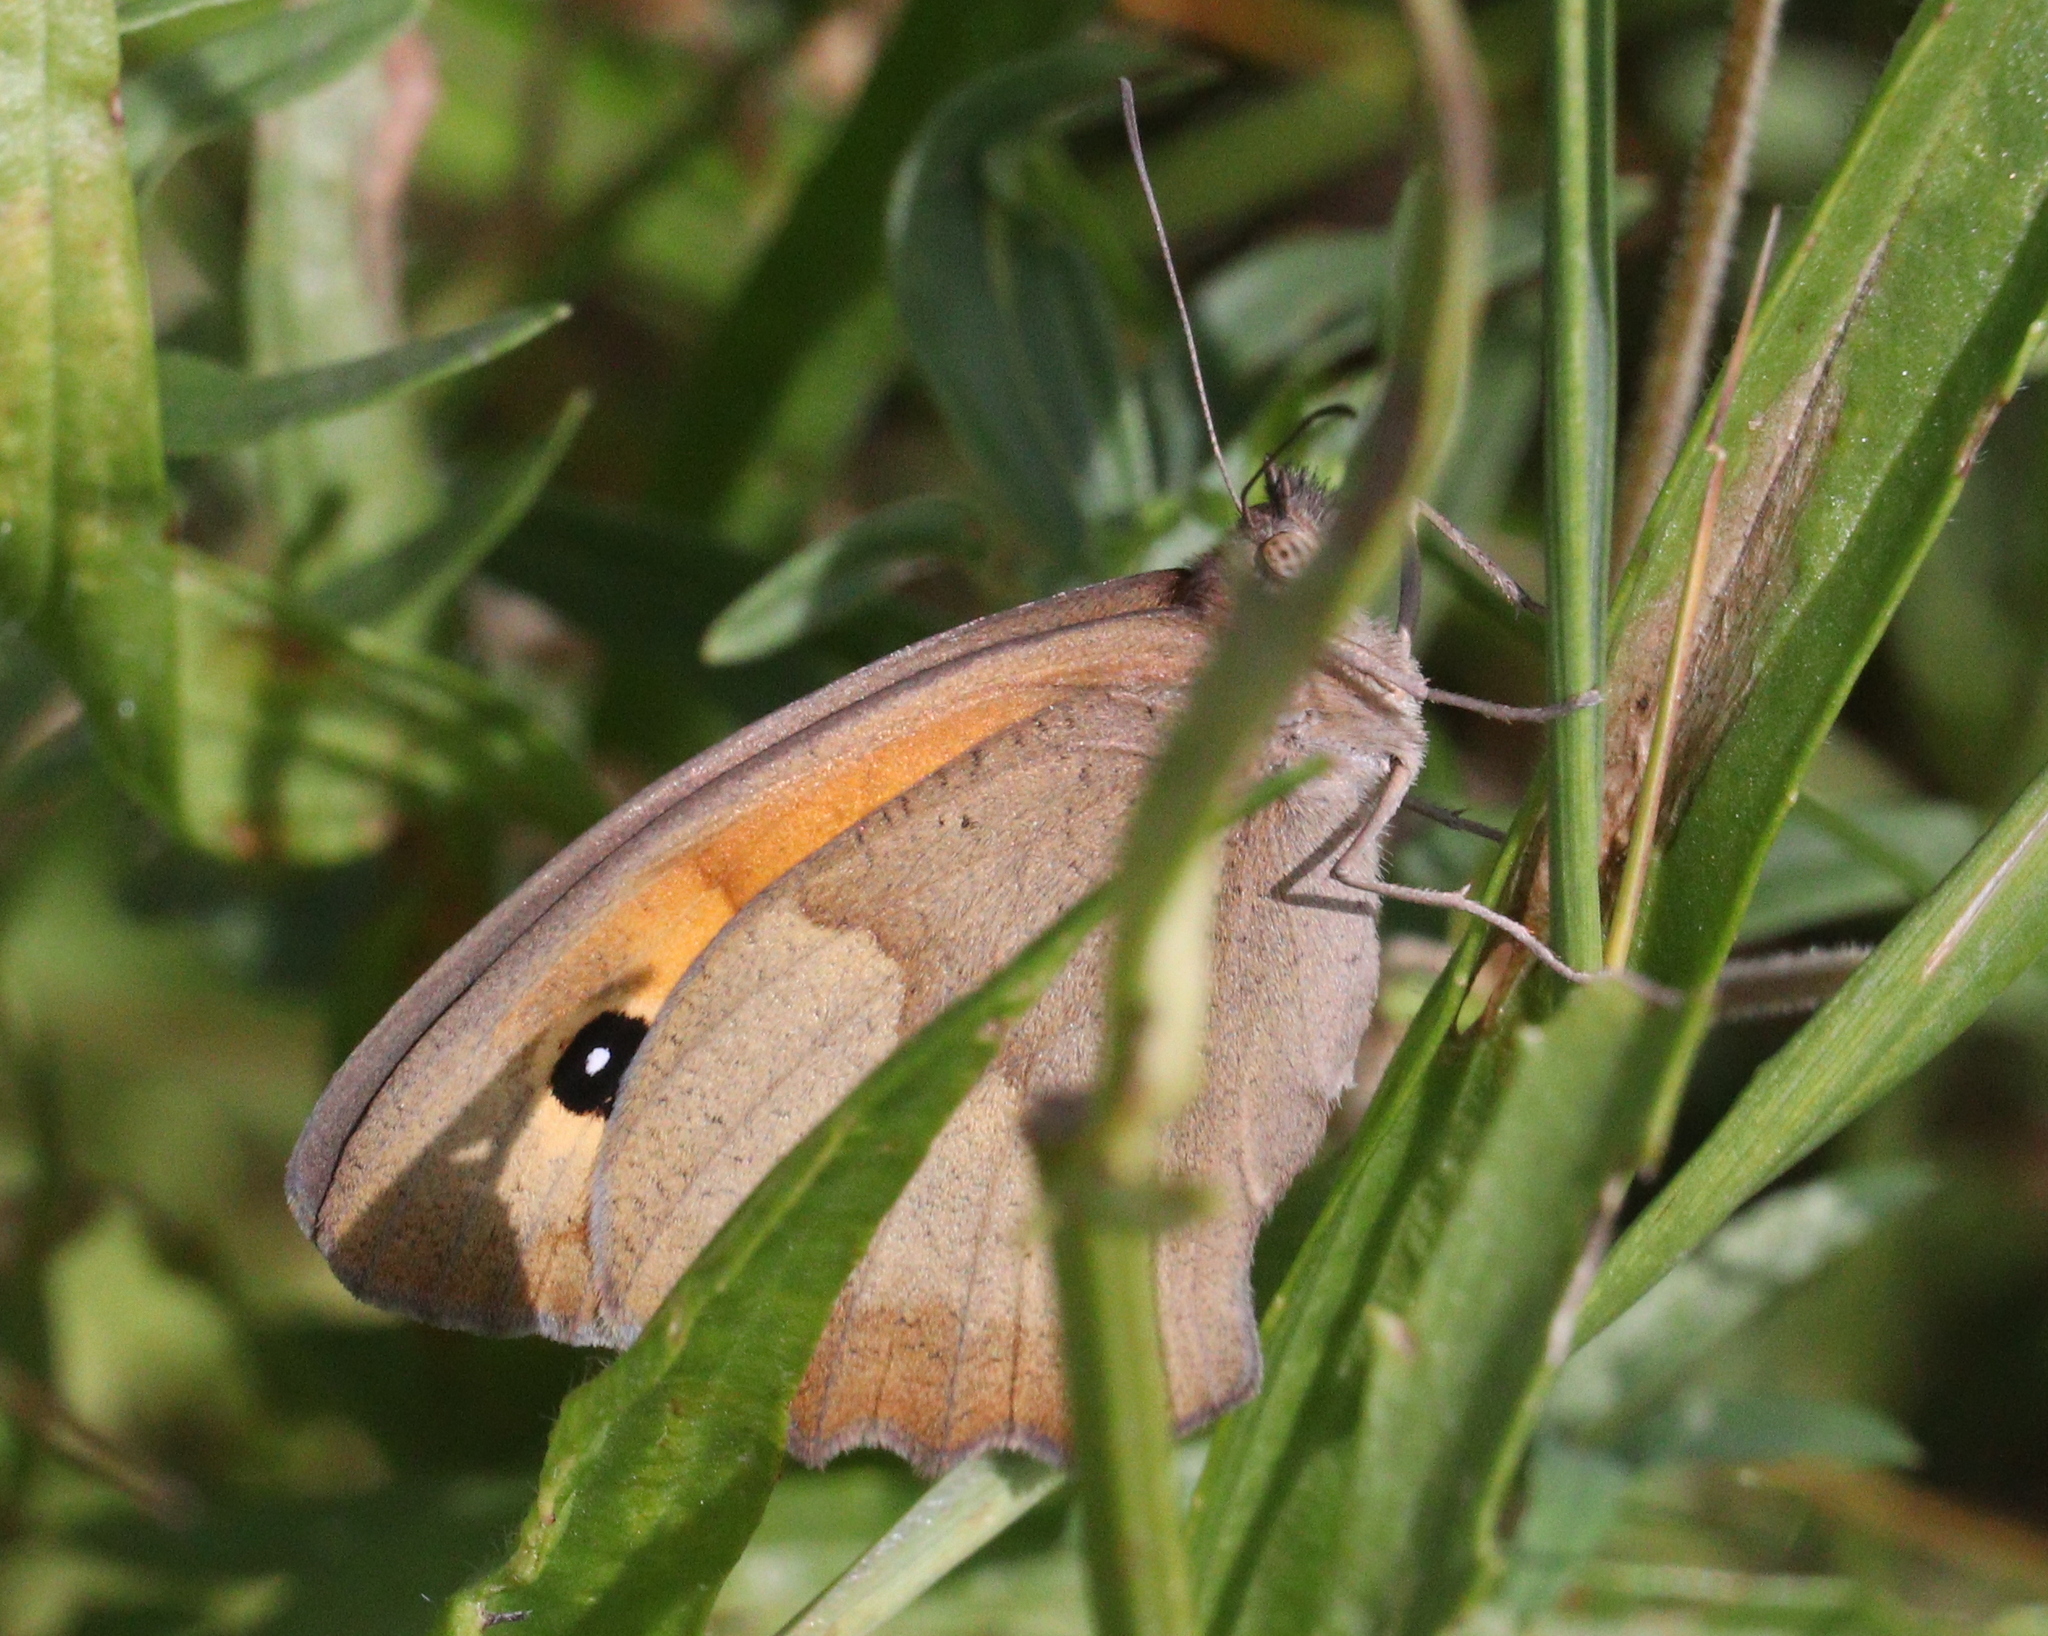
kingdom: Animalia
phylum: Arthropoda
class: Insecta
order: Lepidoptera
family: Nymphalidae
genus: Maniola
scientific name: Maniola jurtina
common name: Meadow brown
